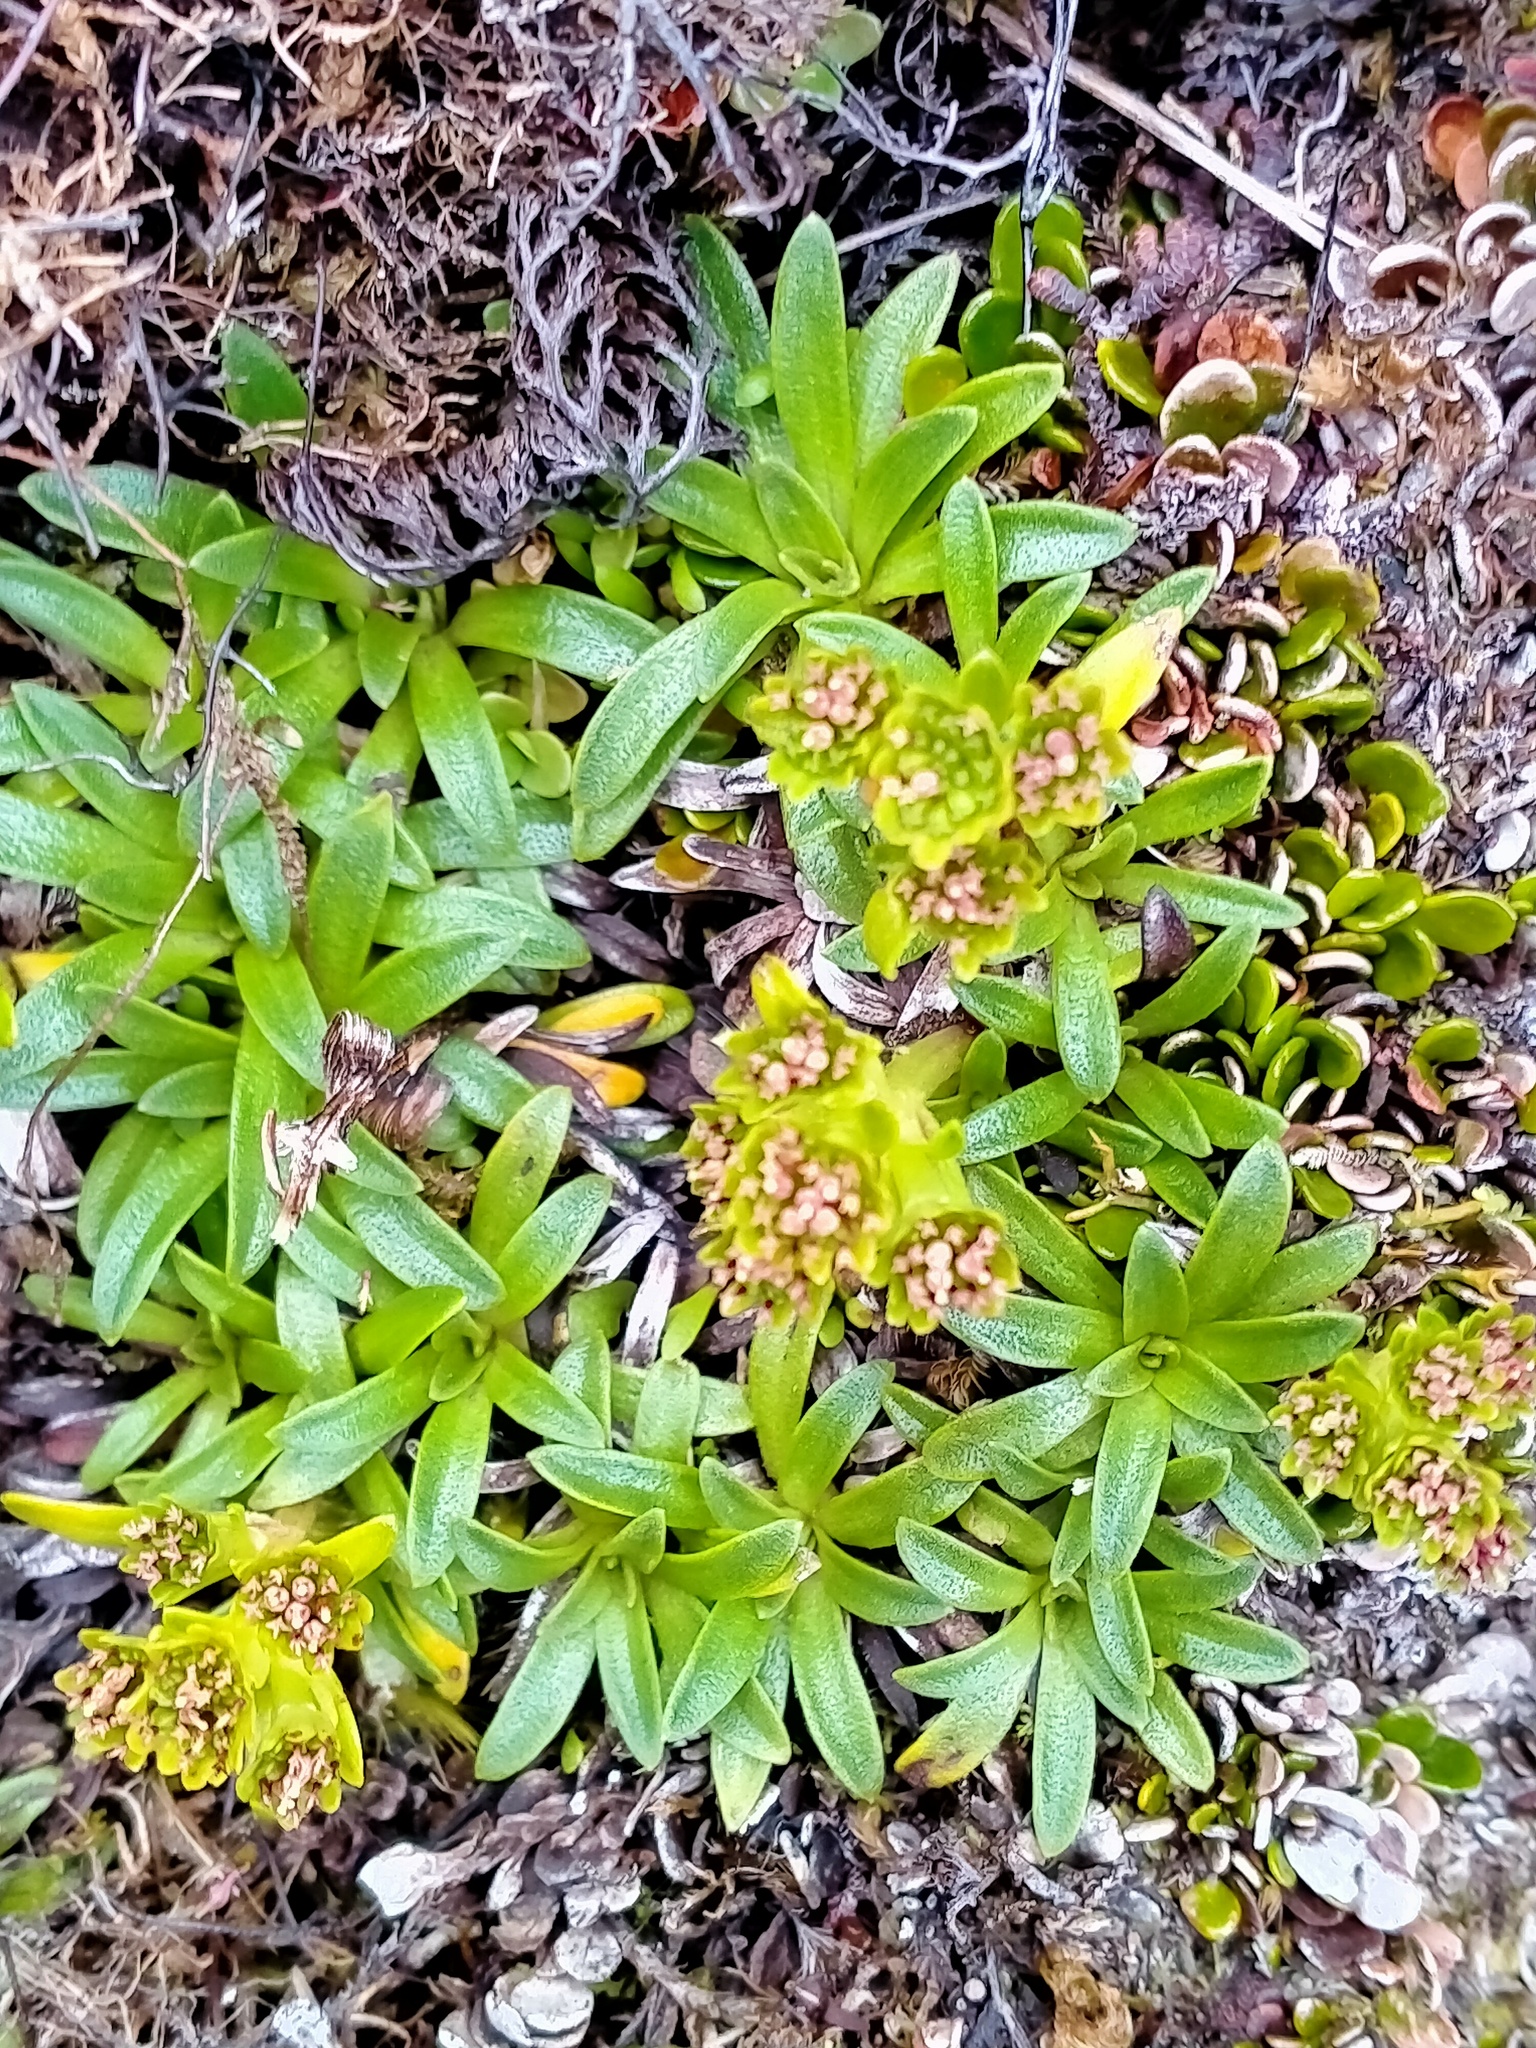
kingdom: Plantae
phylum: Tracheophyta
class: Magnoliopsida
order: Asterales
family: Asteraceae
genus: Abrotanella
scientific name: Abrotanella spathulata
